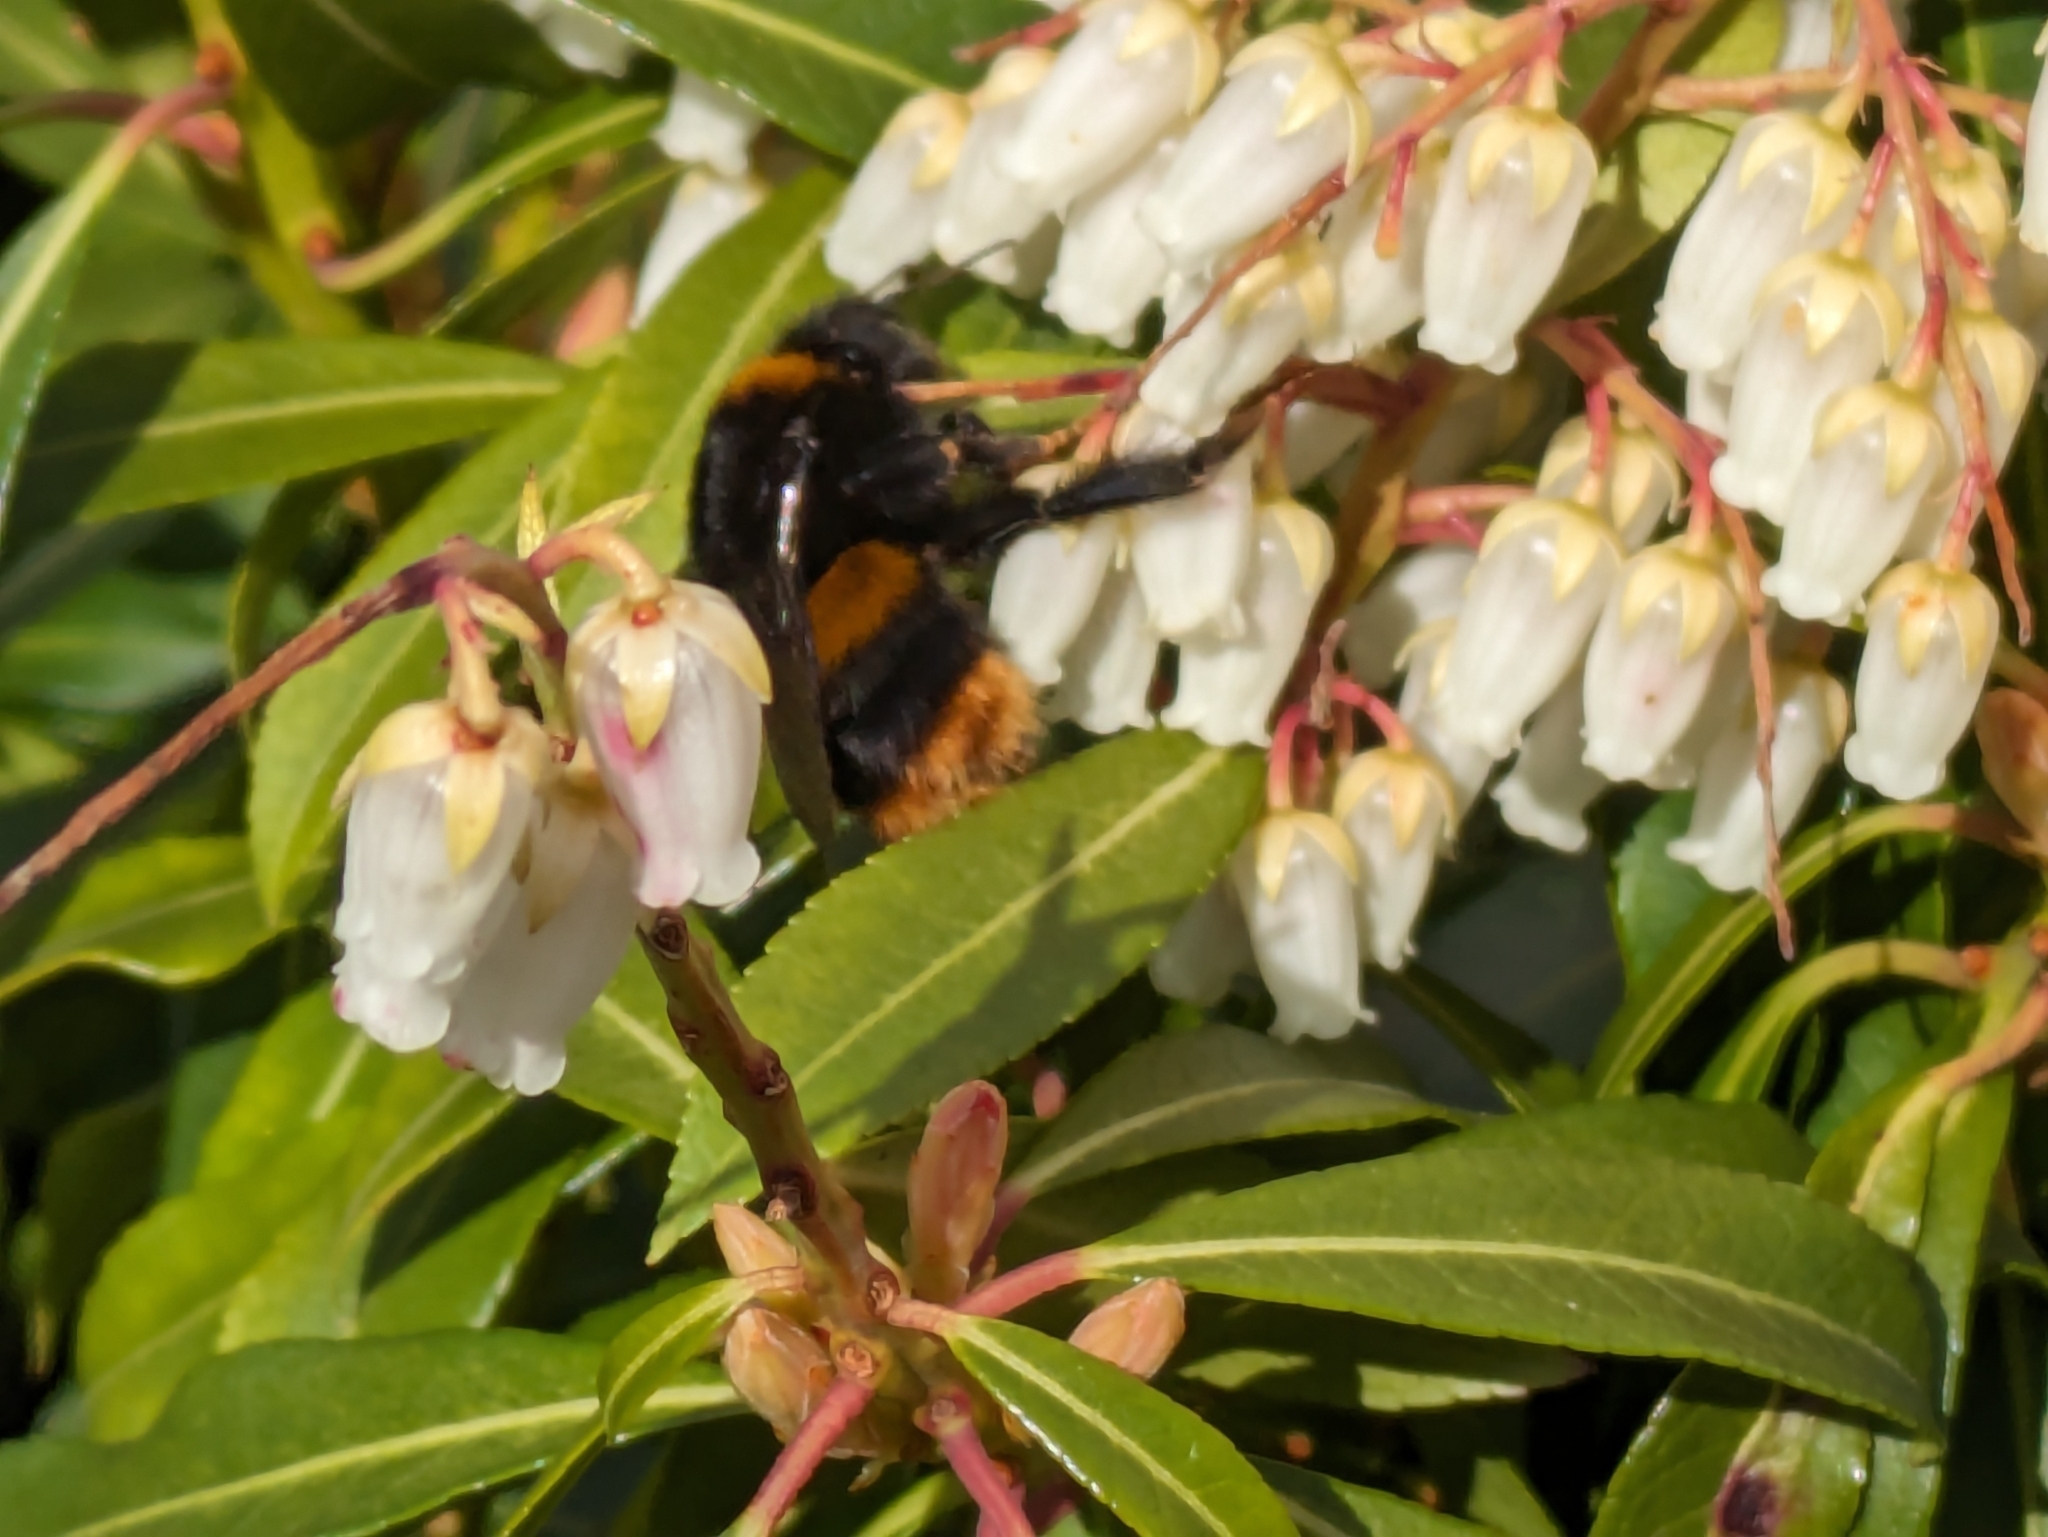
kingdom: Animalia
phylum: Arthropoda
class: Insecta
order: Hymenoptera
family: Apidae
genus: Bombus
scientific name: Bombus terrestris
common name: Buff-tailed bumblebee
